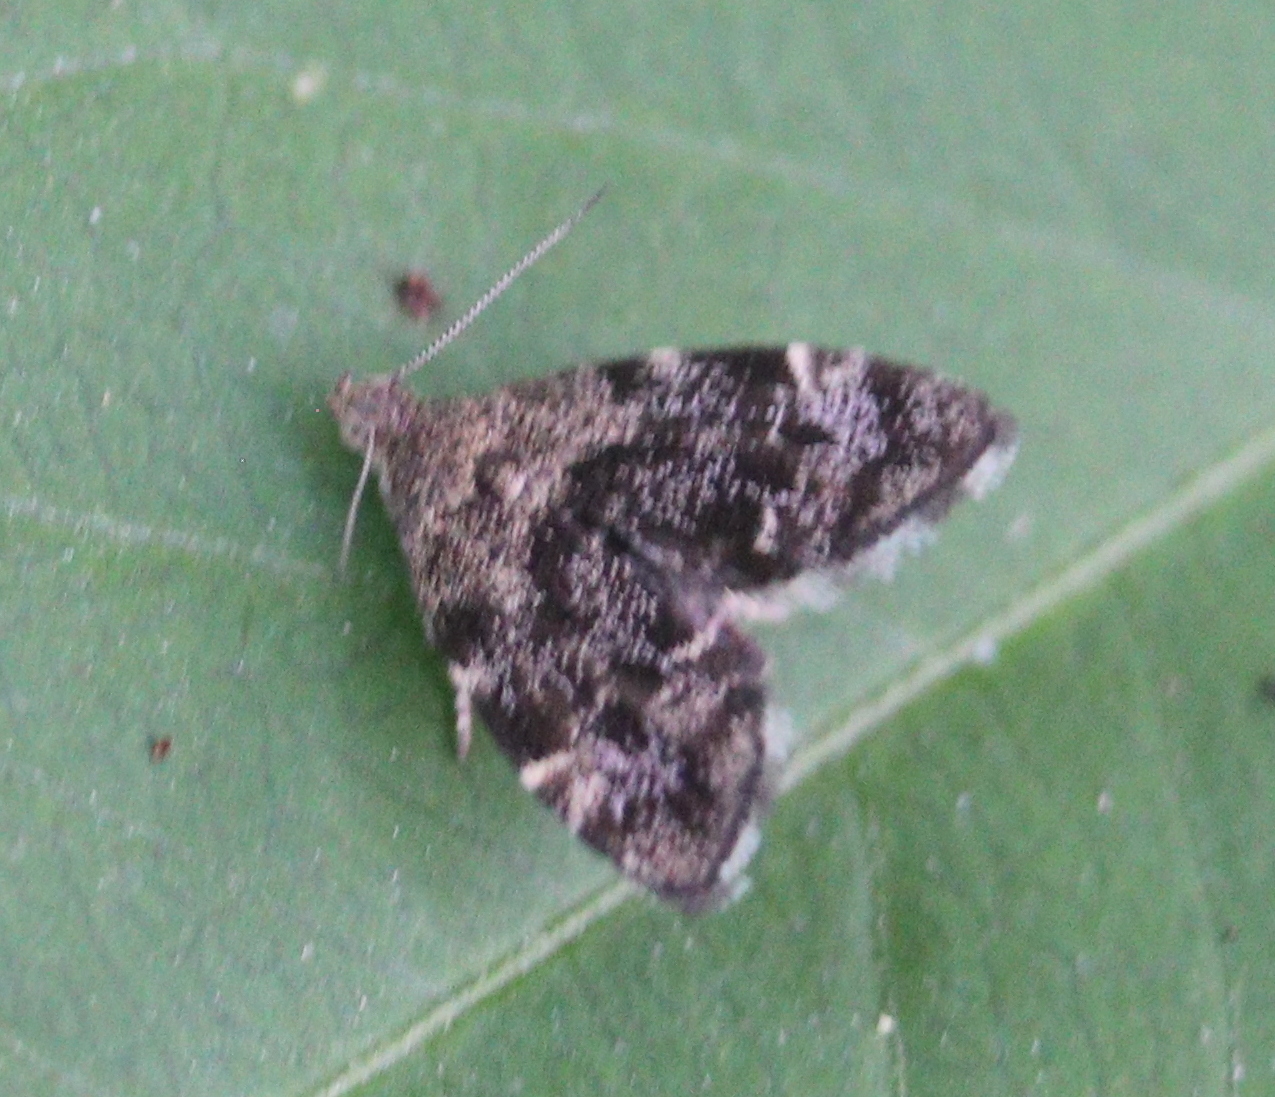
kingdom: Animalia
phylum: Arthropoda
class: Insecta
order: Lepidoptera
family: Choreutidae
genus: Anthophila
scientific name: Anthophila fabriciana
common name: Nettle-tap
